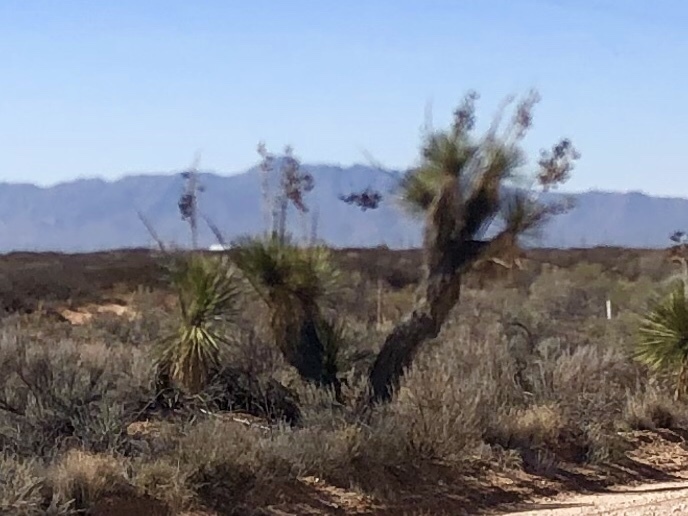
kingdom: Plantae
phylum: Tracheophyta
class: Liliopsida
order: Asparagales
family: Asparagaceae
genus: Yucca
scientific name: Yucca elata
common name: Palmella
